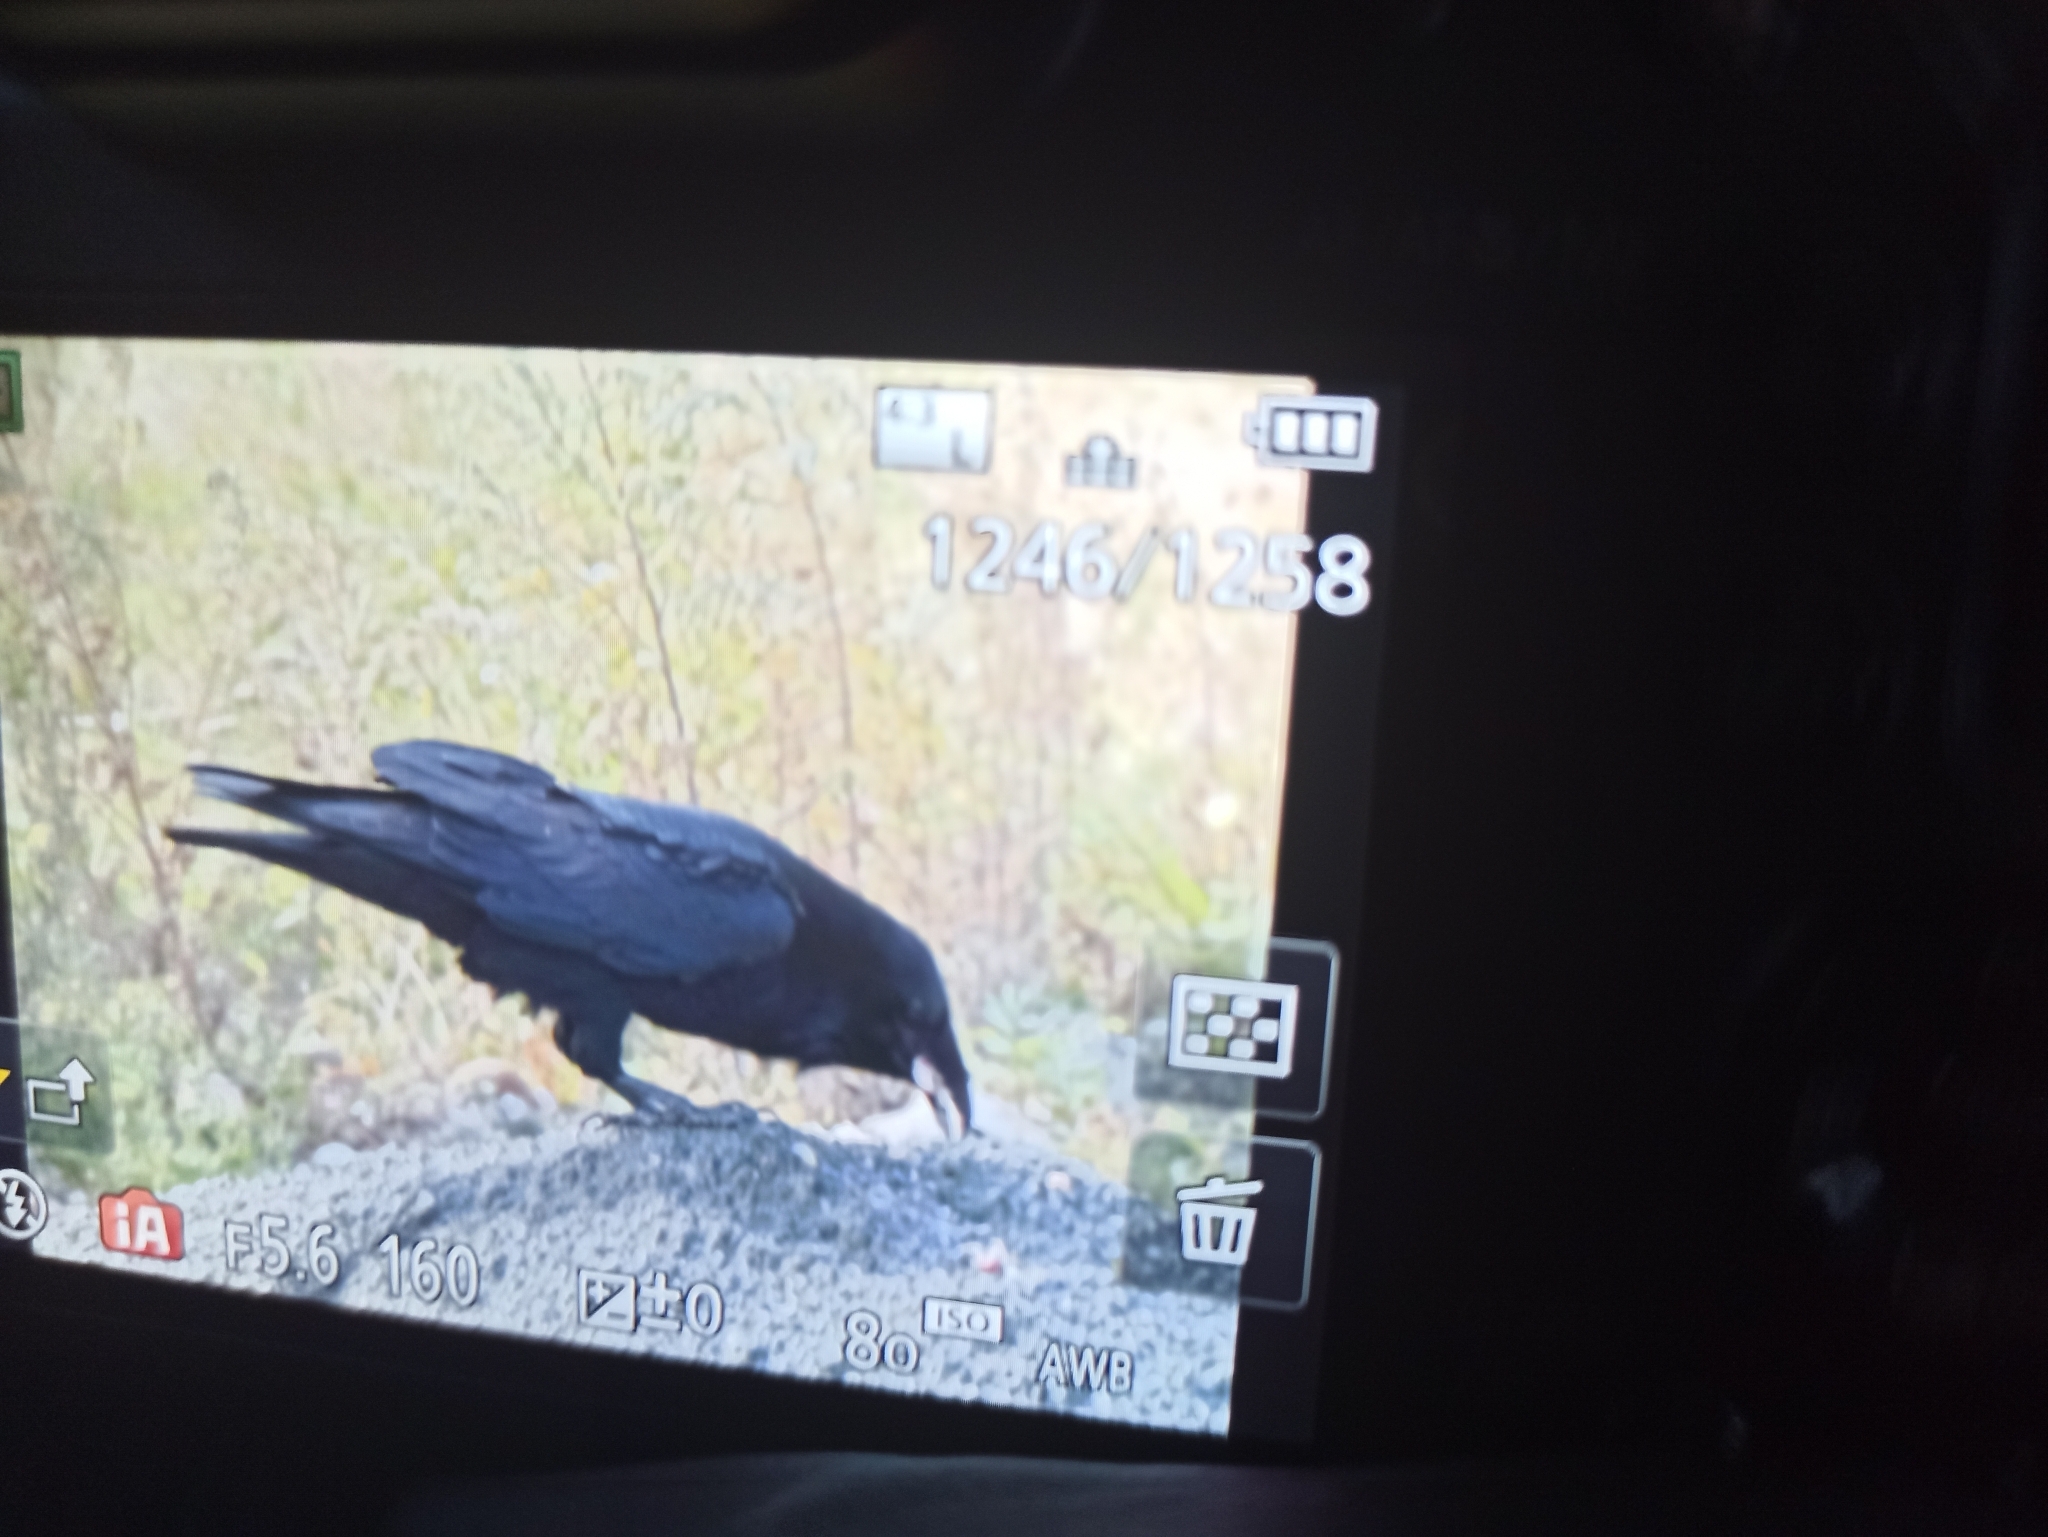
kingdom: Animalia
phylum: Chordata
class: Aves
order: Passeriformes
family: Corvidae
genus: Corvus
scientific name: Corvus corax
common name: Common raven
